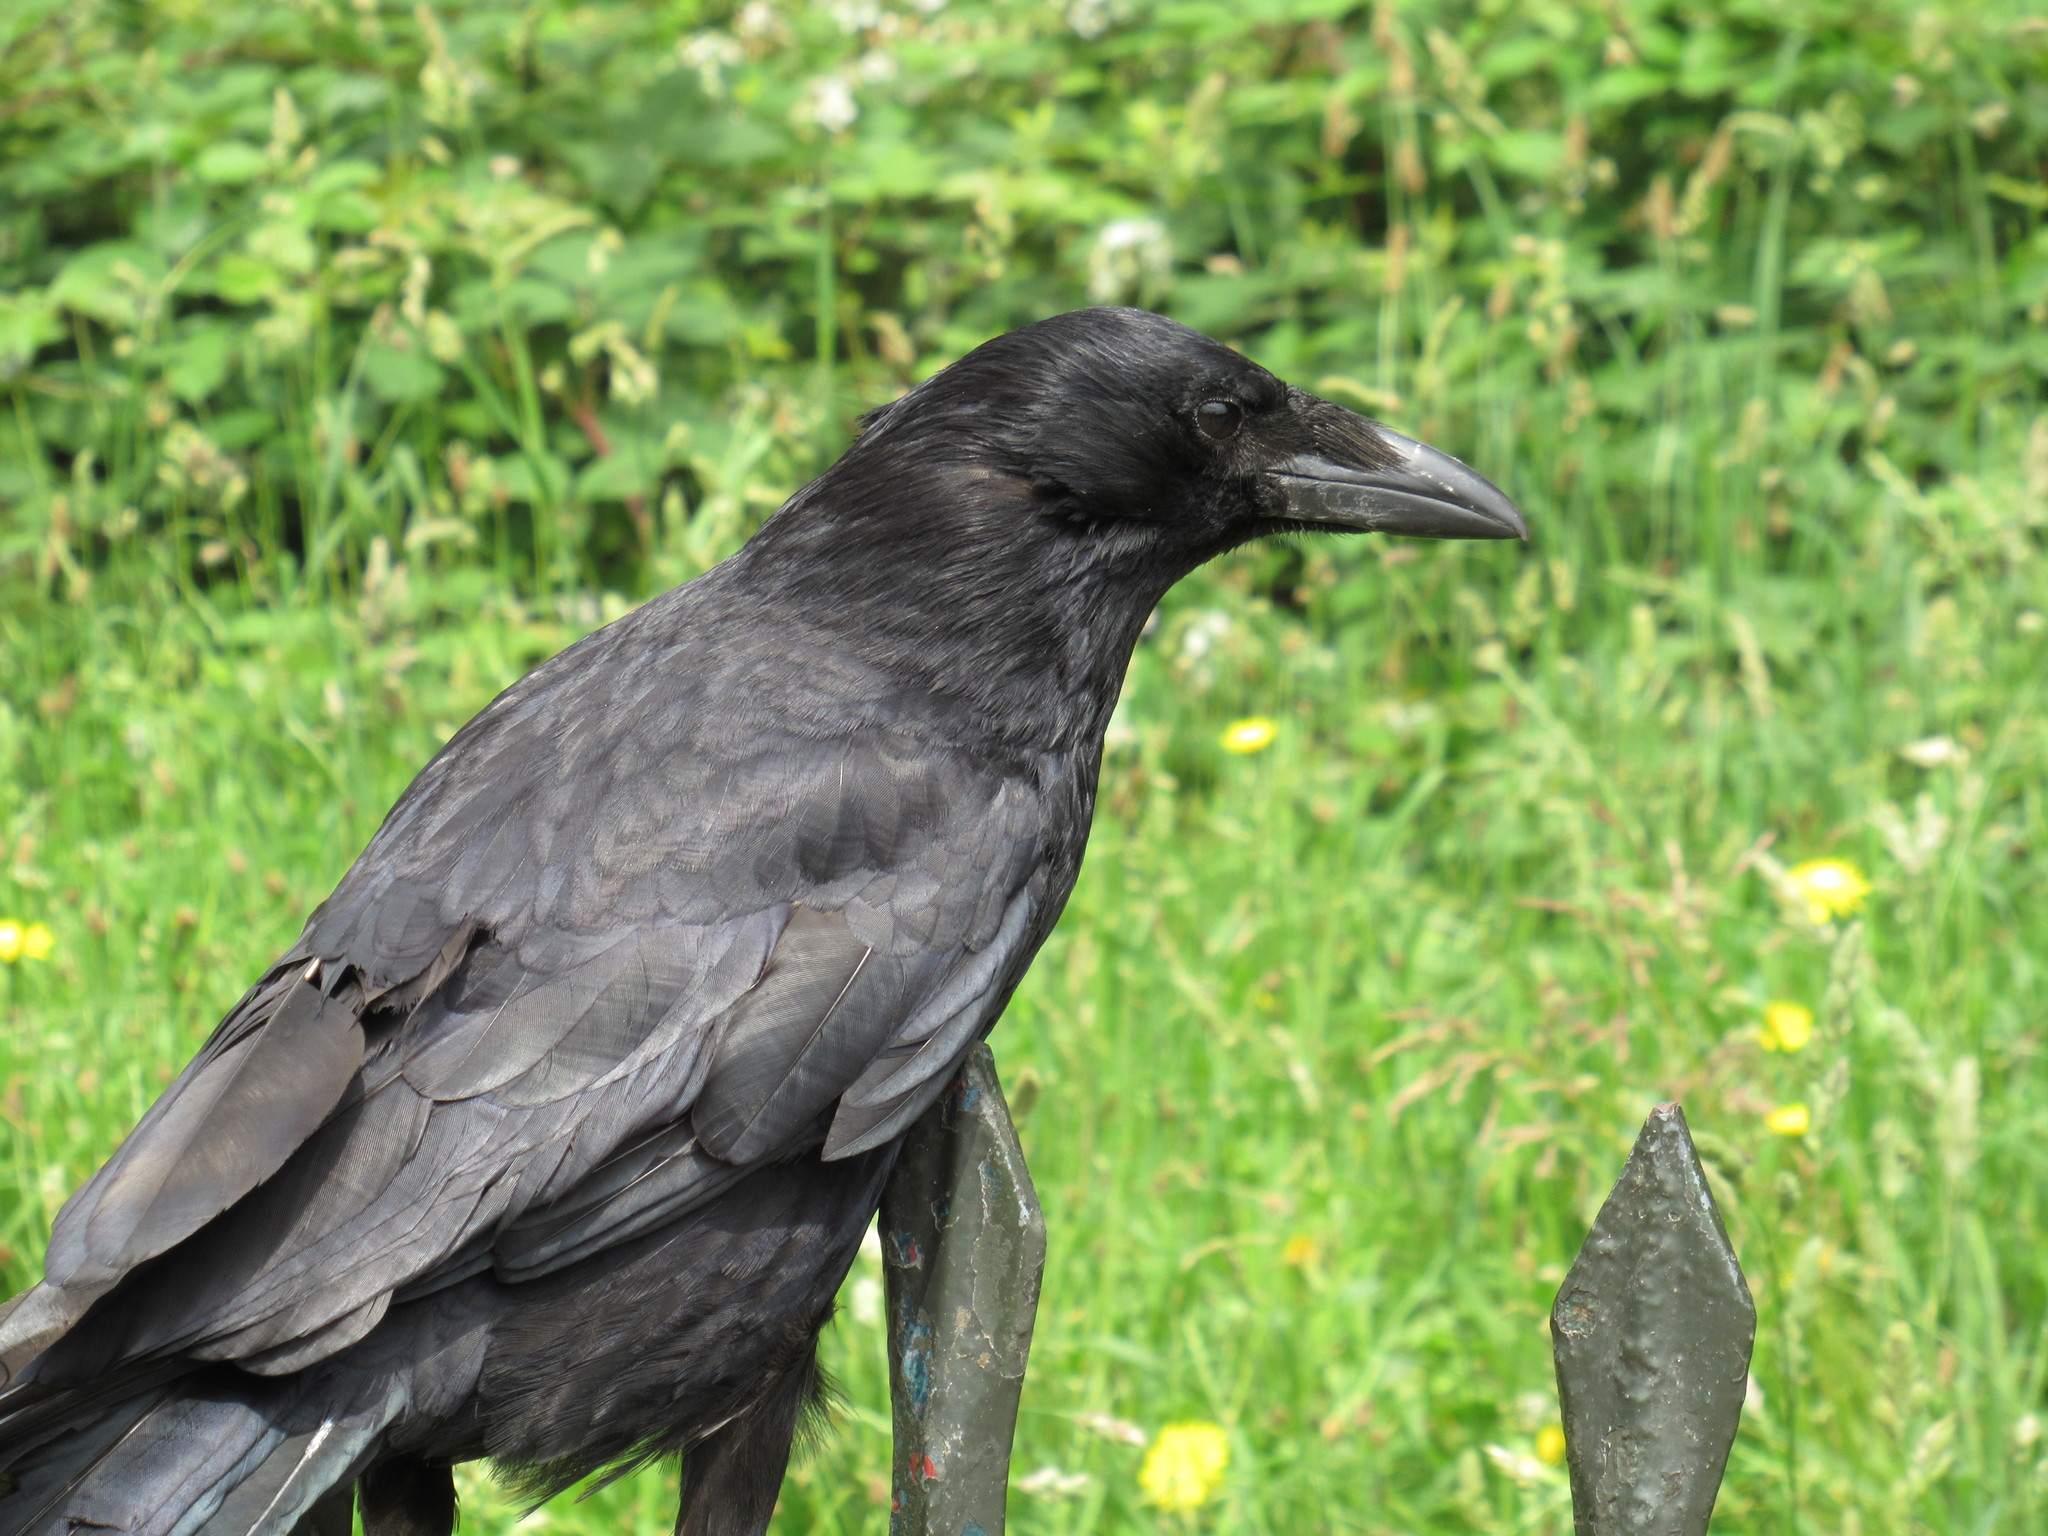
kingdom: Animalia
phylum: Chordata
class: Aves
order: Passeriformes
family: Corvidae
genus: Corvus
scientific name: Corvus corone
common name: Carrion crow
